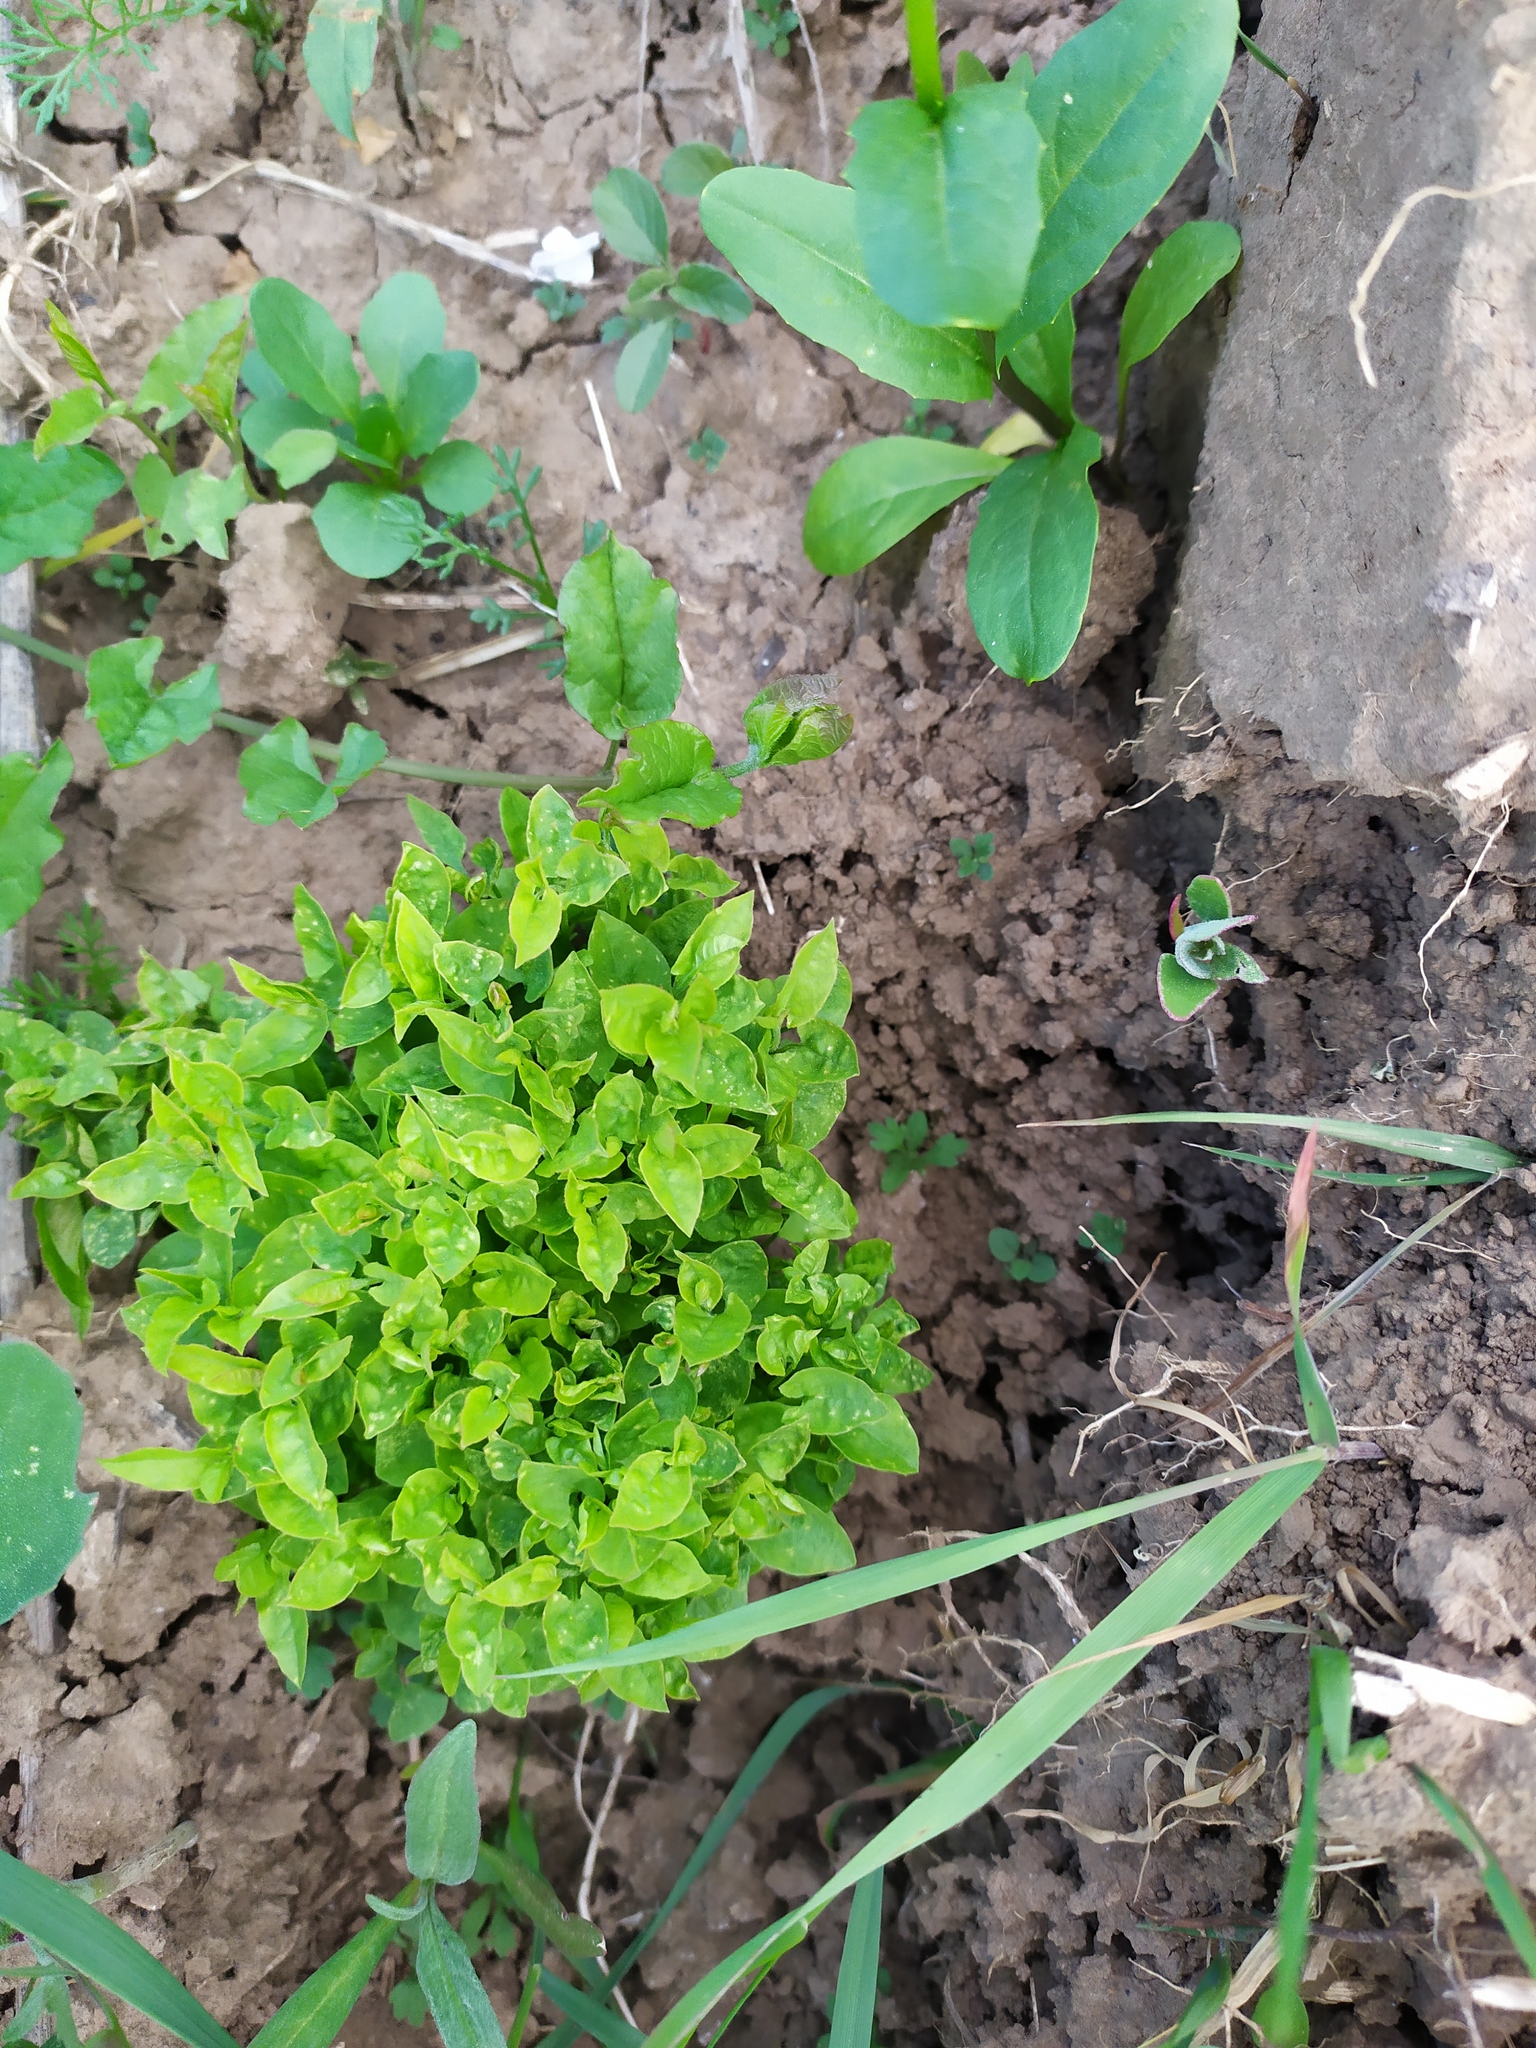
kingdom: Plantae
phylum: Tracheophyta
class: Magnoliopsida
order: Solanales
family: Convolvulaceae
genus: Convolvulus
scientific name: Convolvulus arvensis
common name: Field bindweed
